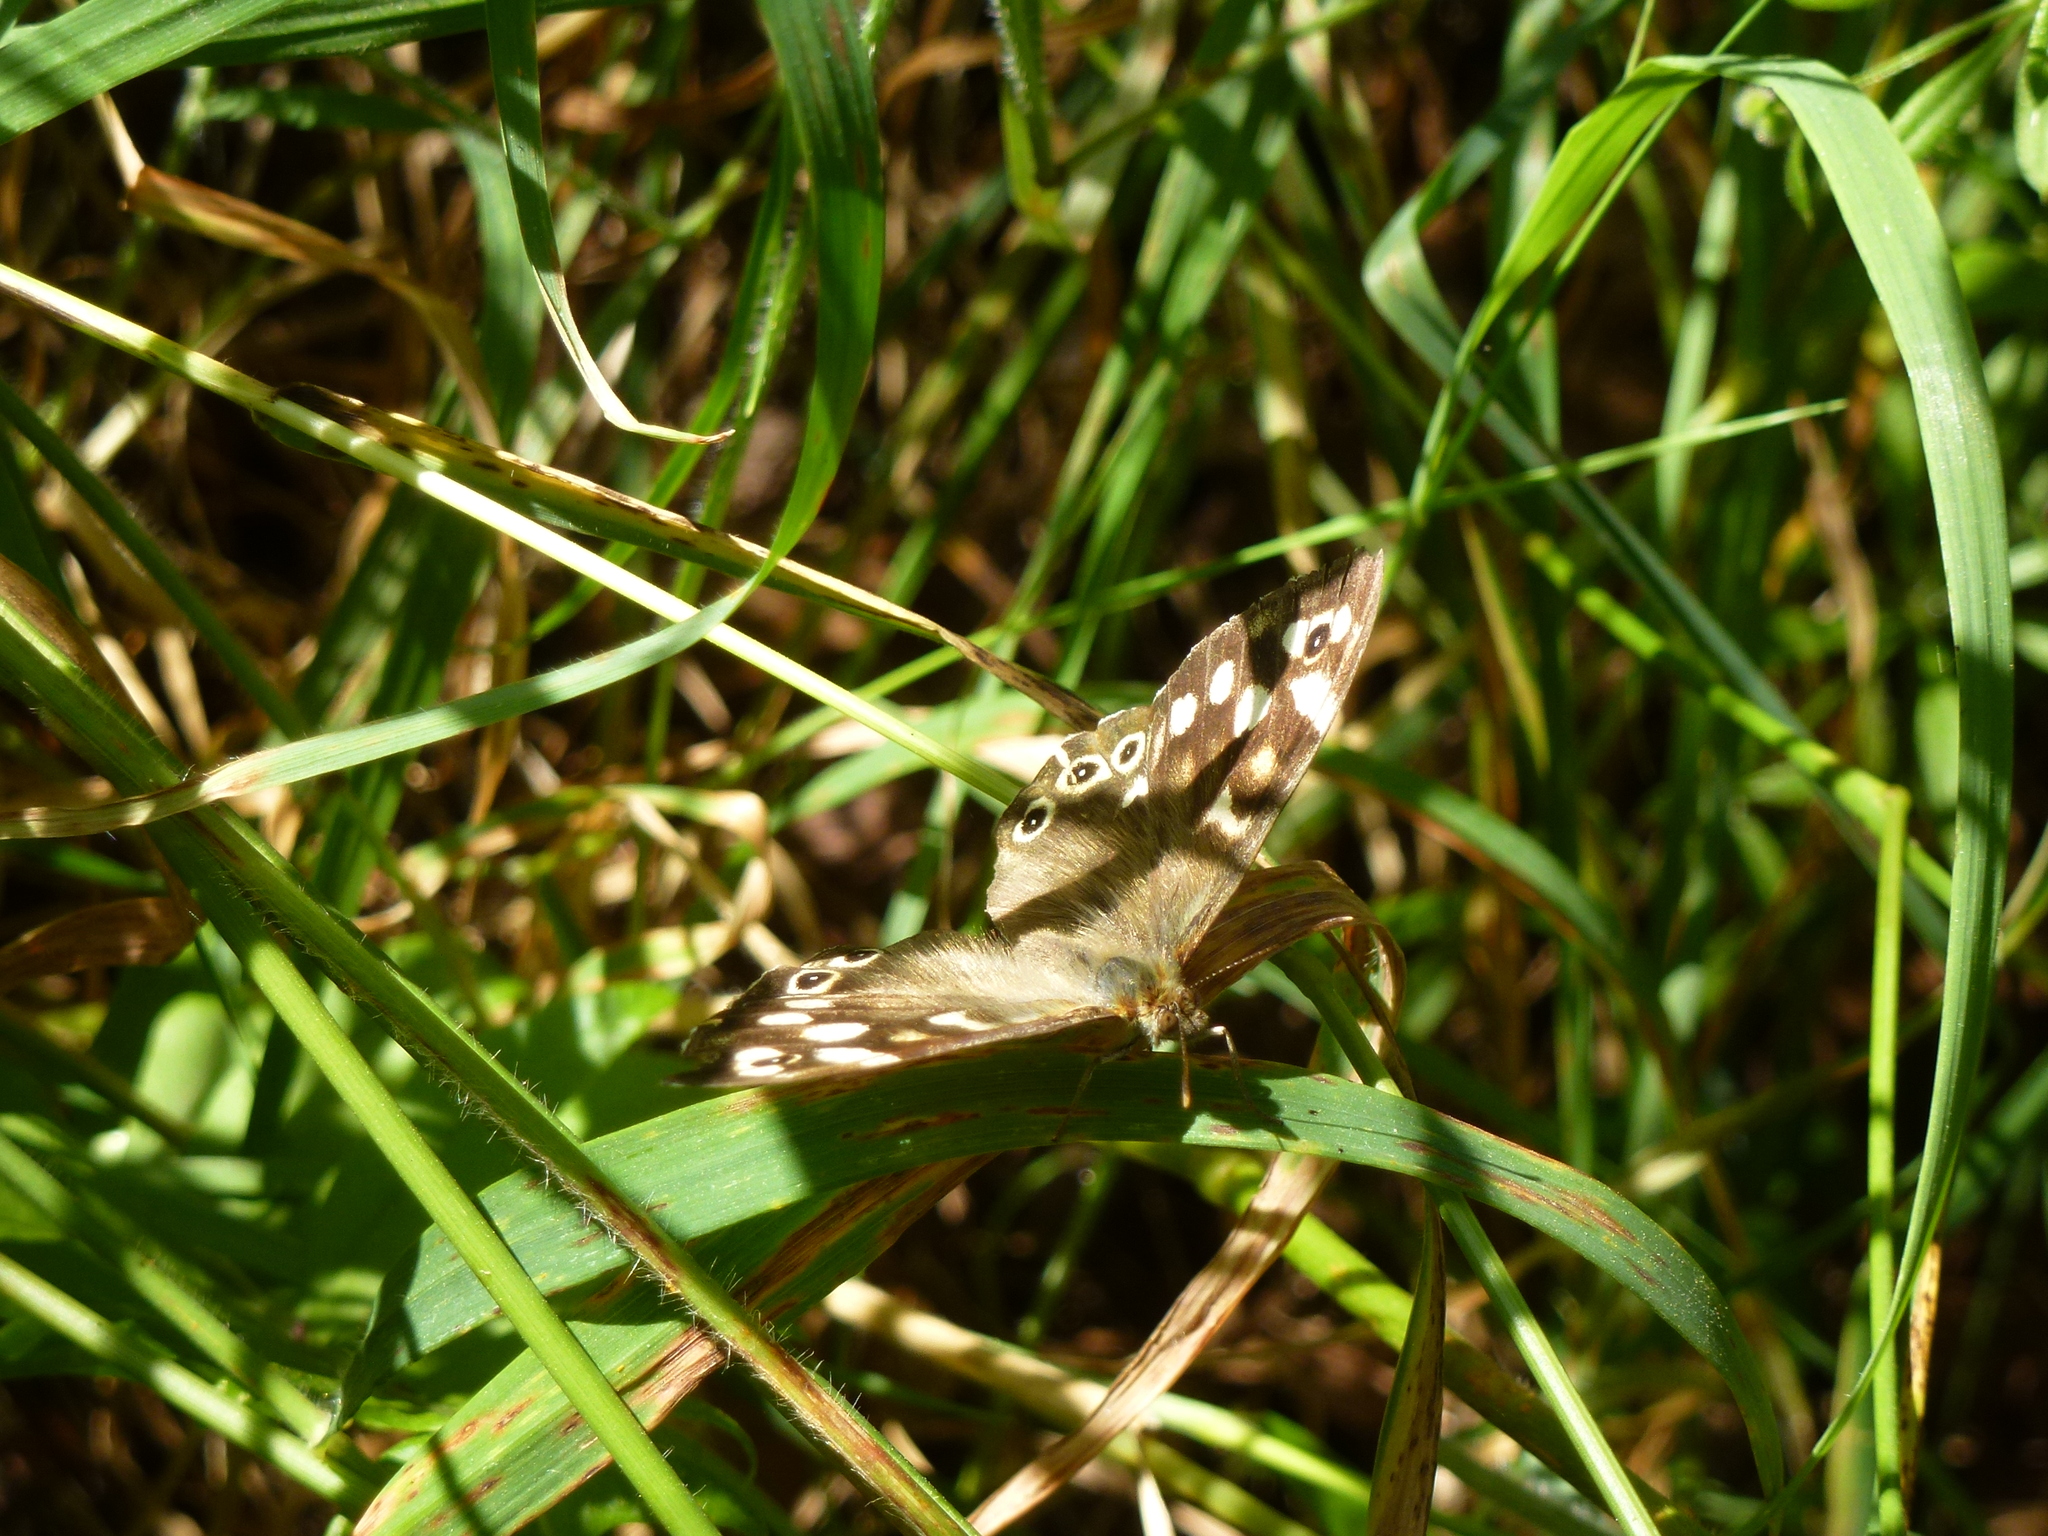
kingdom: Animalia
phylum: Arthropoda
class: Insecta
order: Lepidoptera
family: Nymphalidae
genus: Pararge
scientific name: Pararge aegeria
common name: Speckled wood
